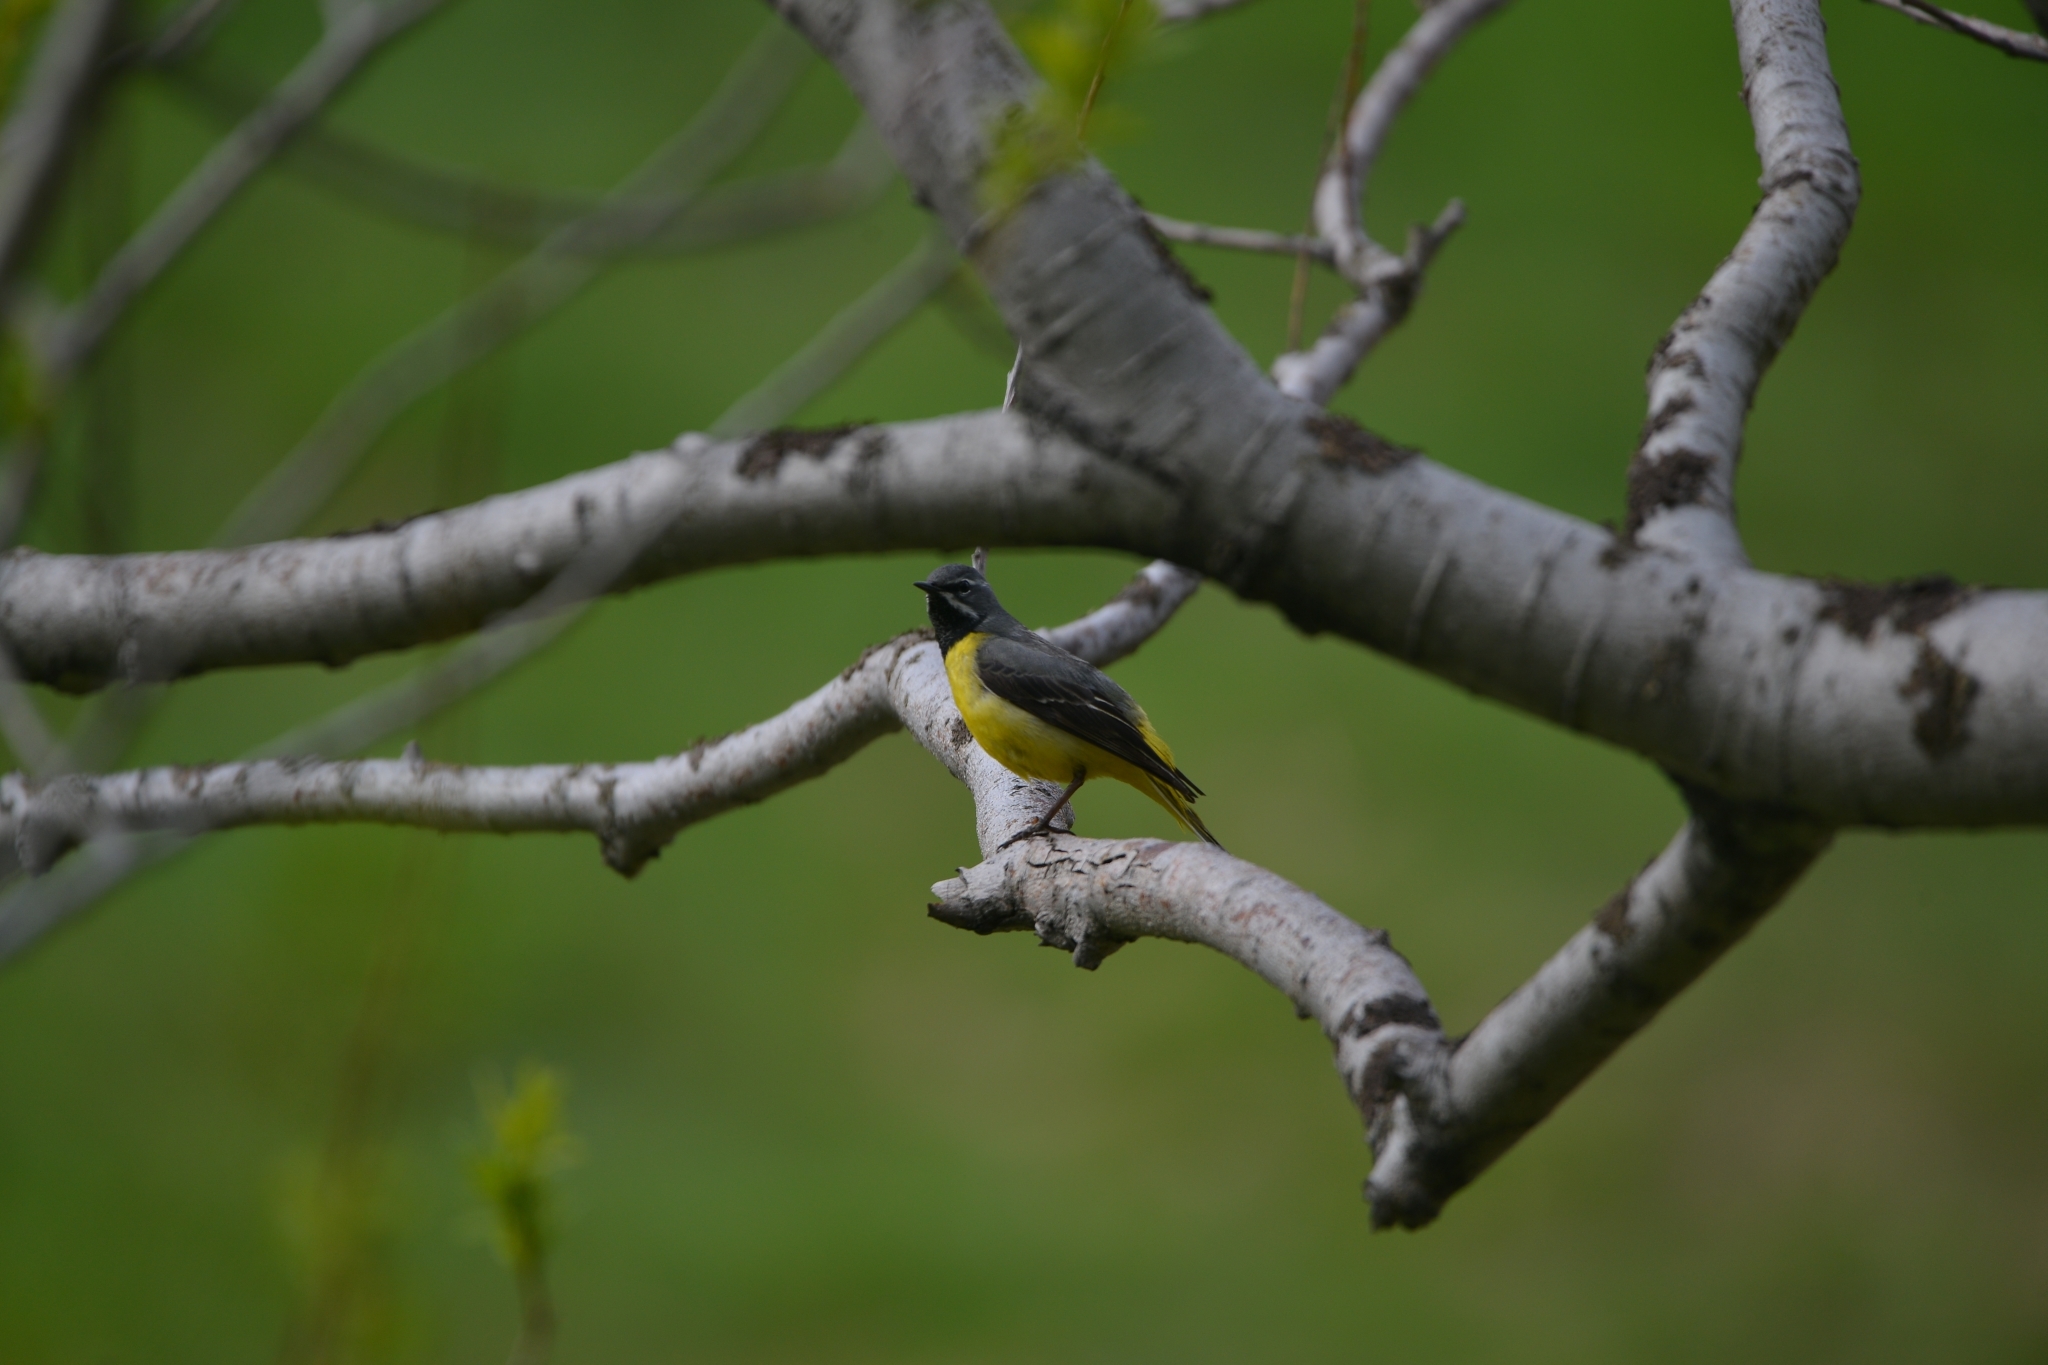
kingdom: Animalia
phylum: Chordata
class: Aves
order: Passeriformes
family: Motacillidae
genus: Motacilla
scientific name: Motacilla cinerea
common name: Grey wagtail
